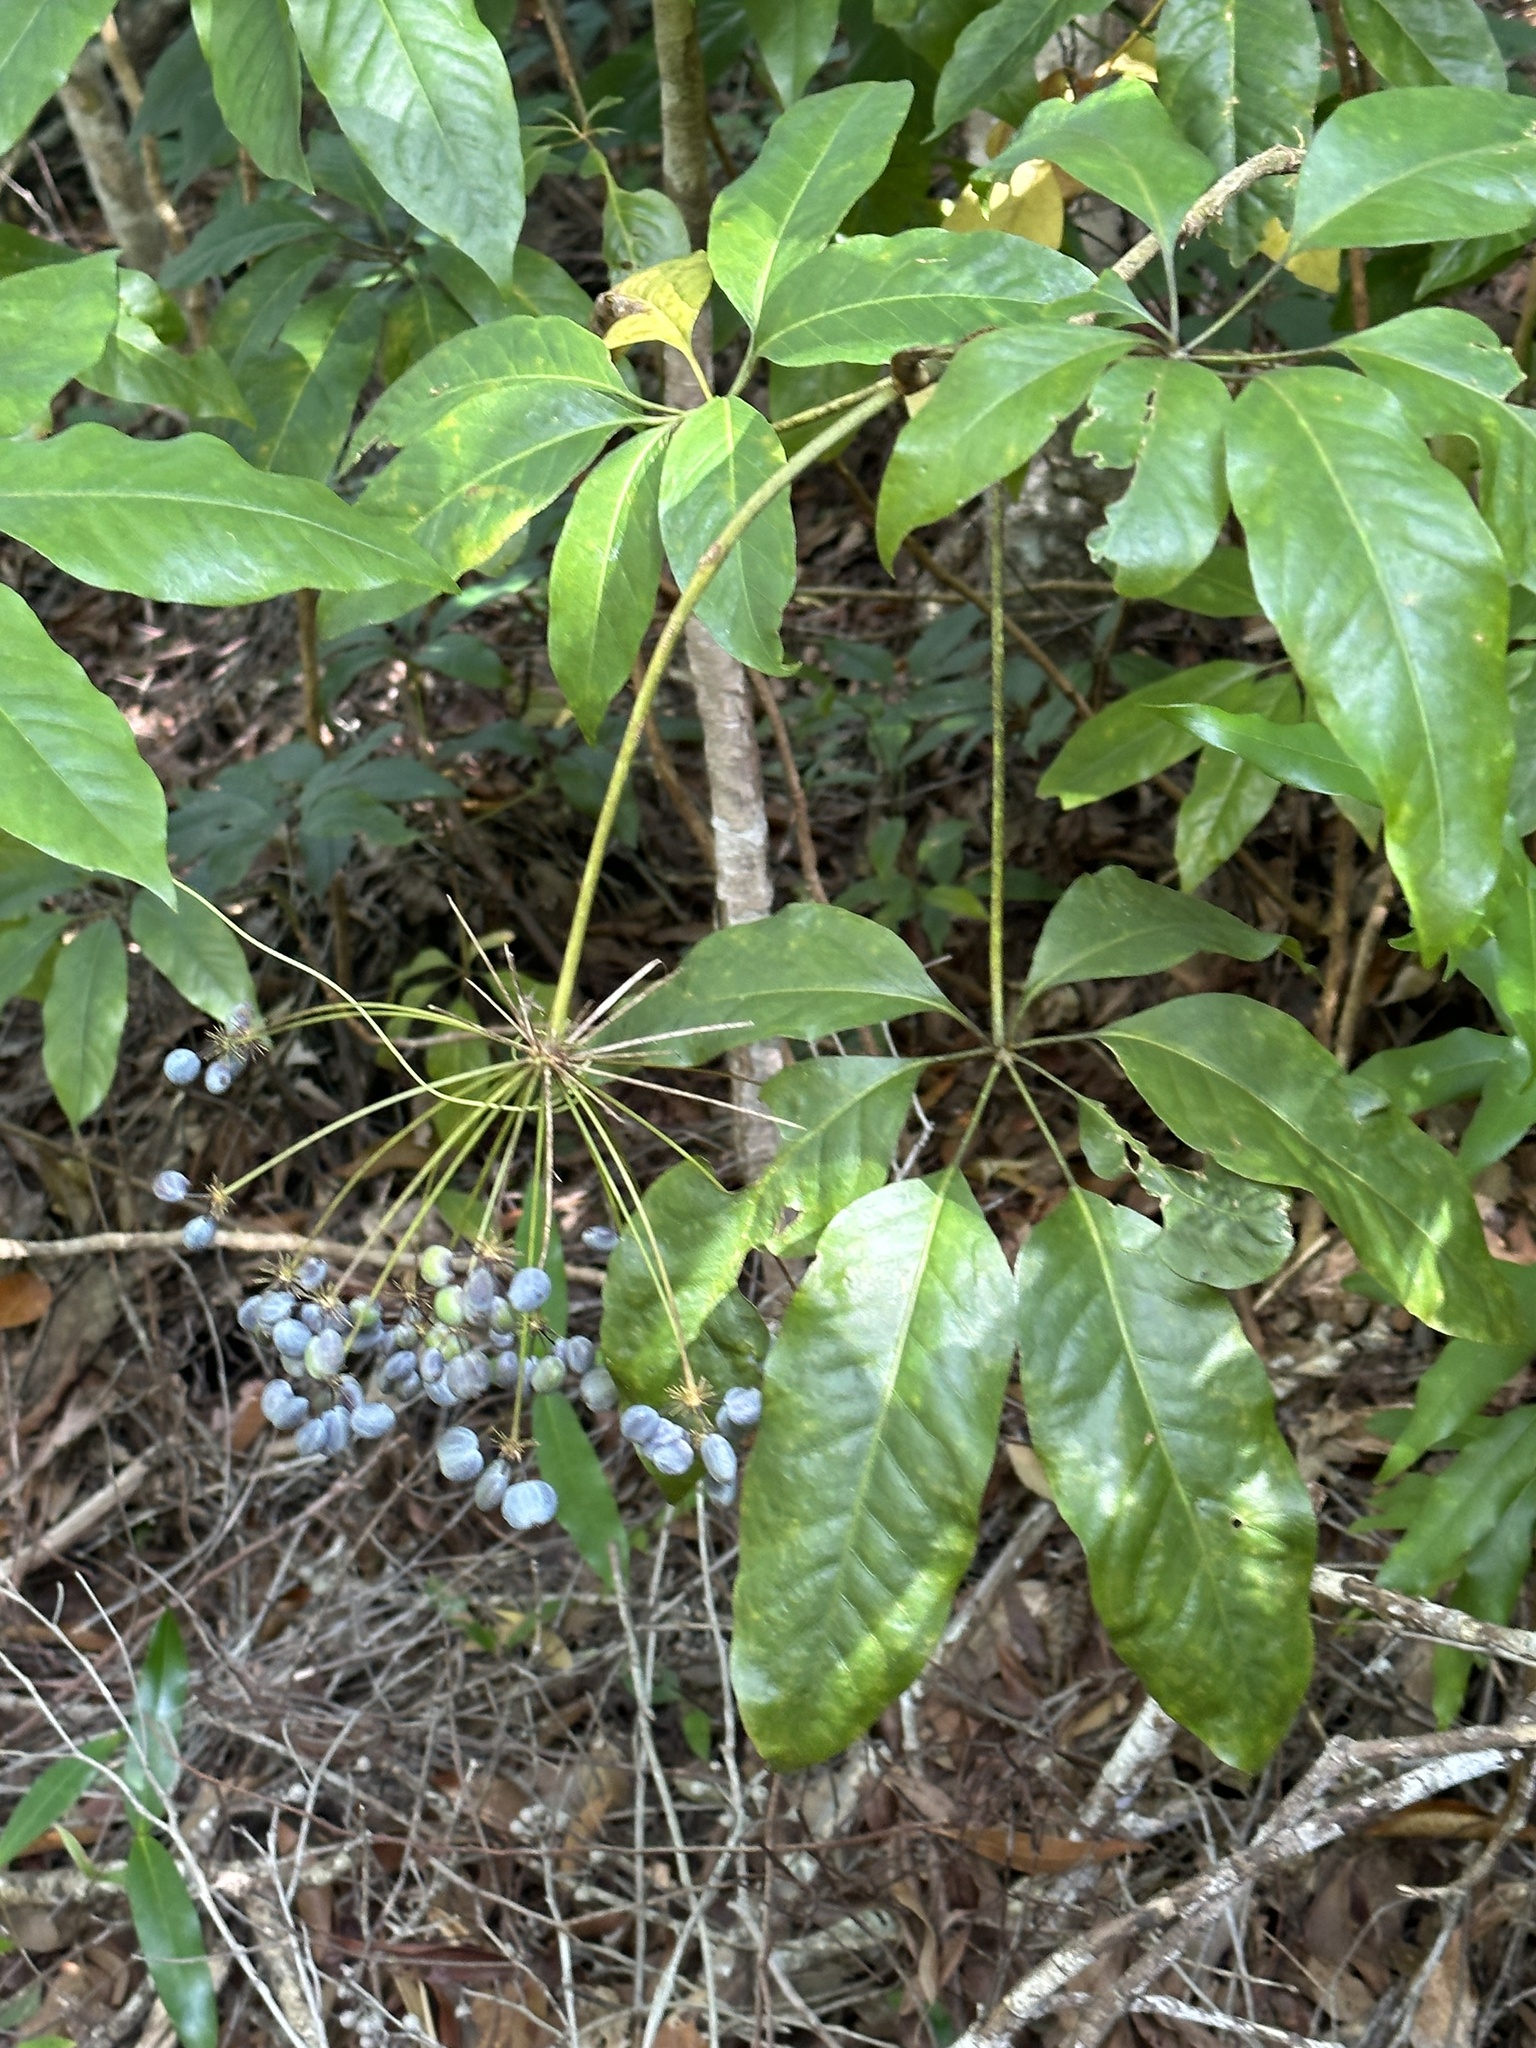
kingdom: Plantae
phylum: Tracheophyta
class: Magnoliopsida
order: Apiales
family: Apiaceae
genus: Mackinlaya
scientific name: Mackinlaya macrosciadea
